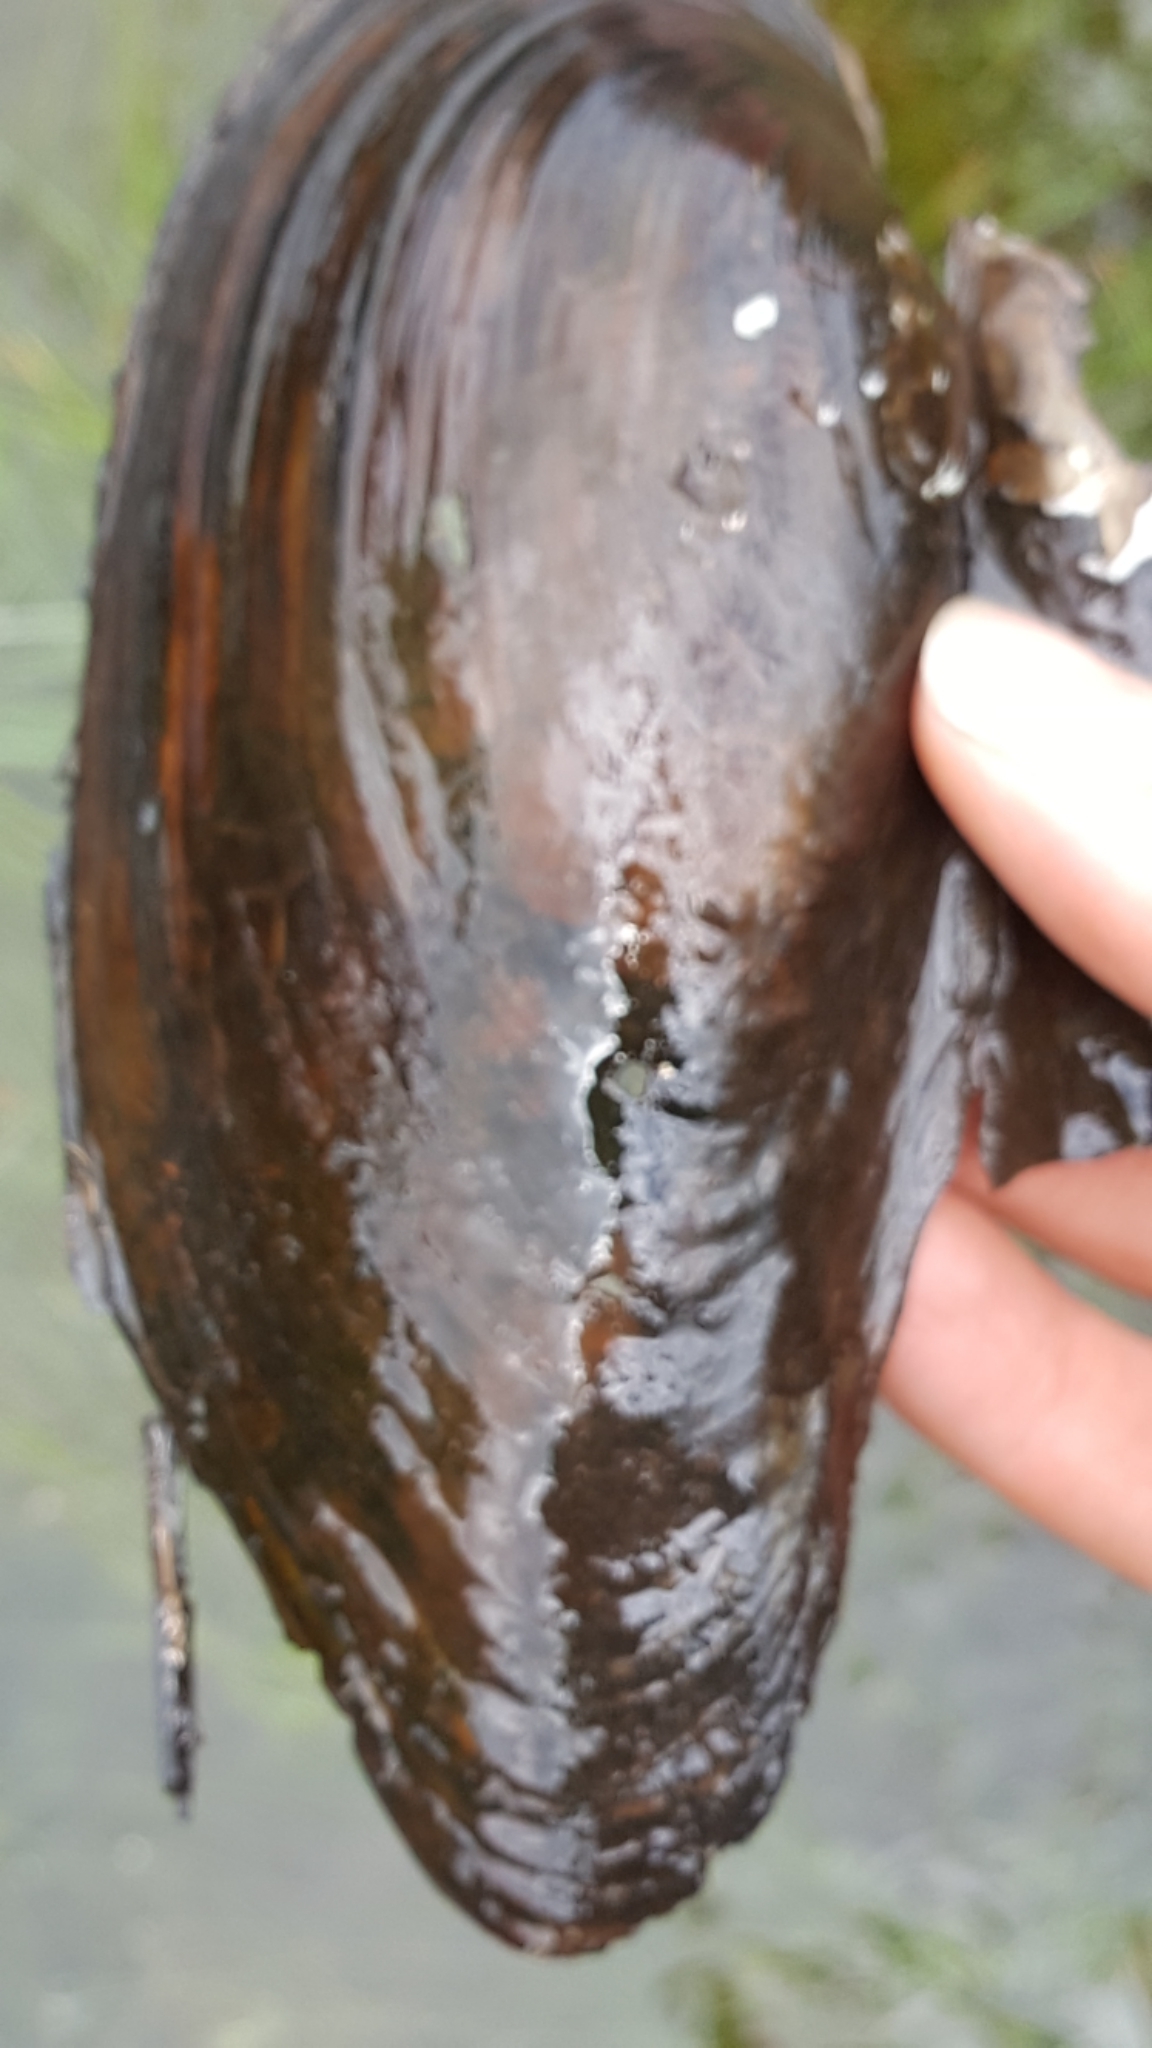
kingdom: Animalia
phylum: Mollusca
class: Bivalvia
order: Unionida
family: Unionidae
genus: Pyganodon
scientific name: Pyganodon cataracta
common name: Eastern floater
